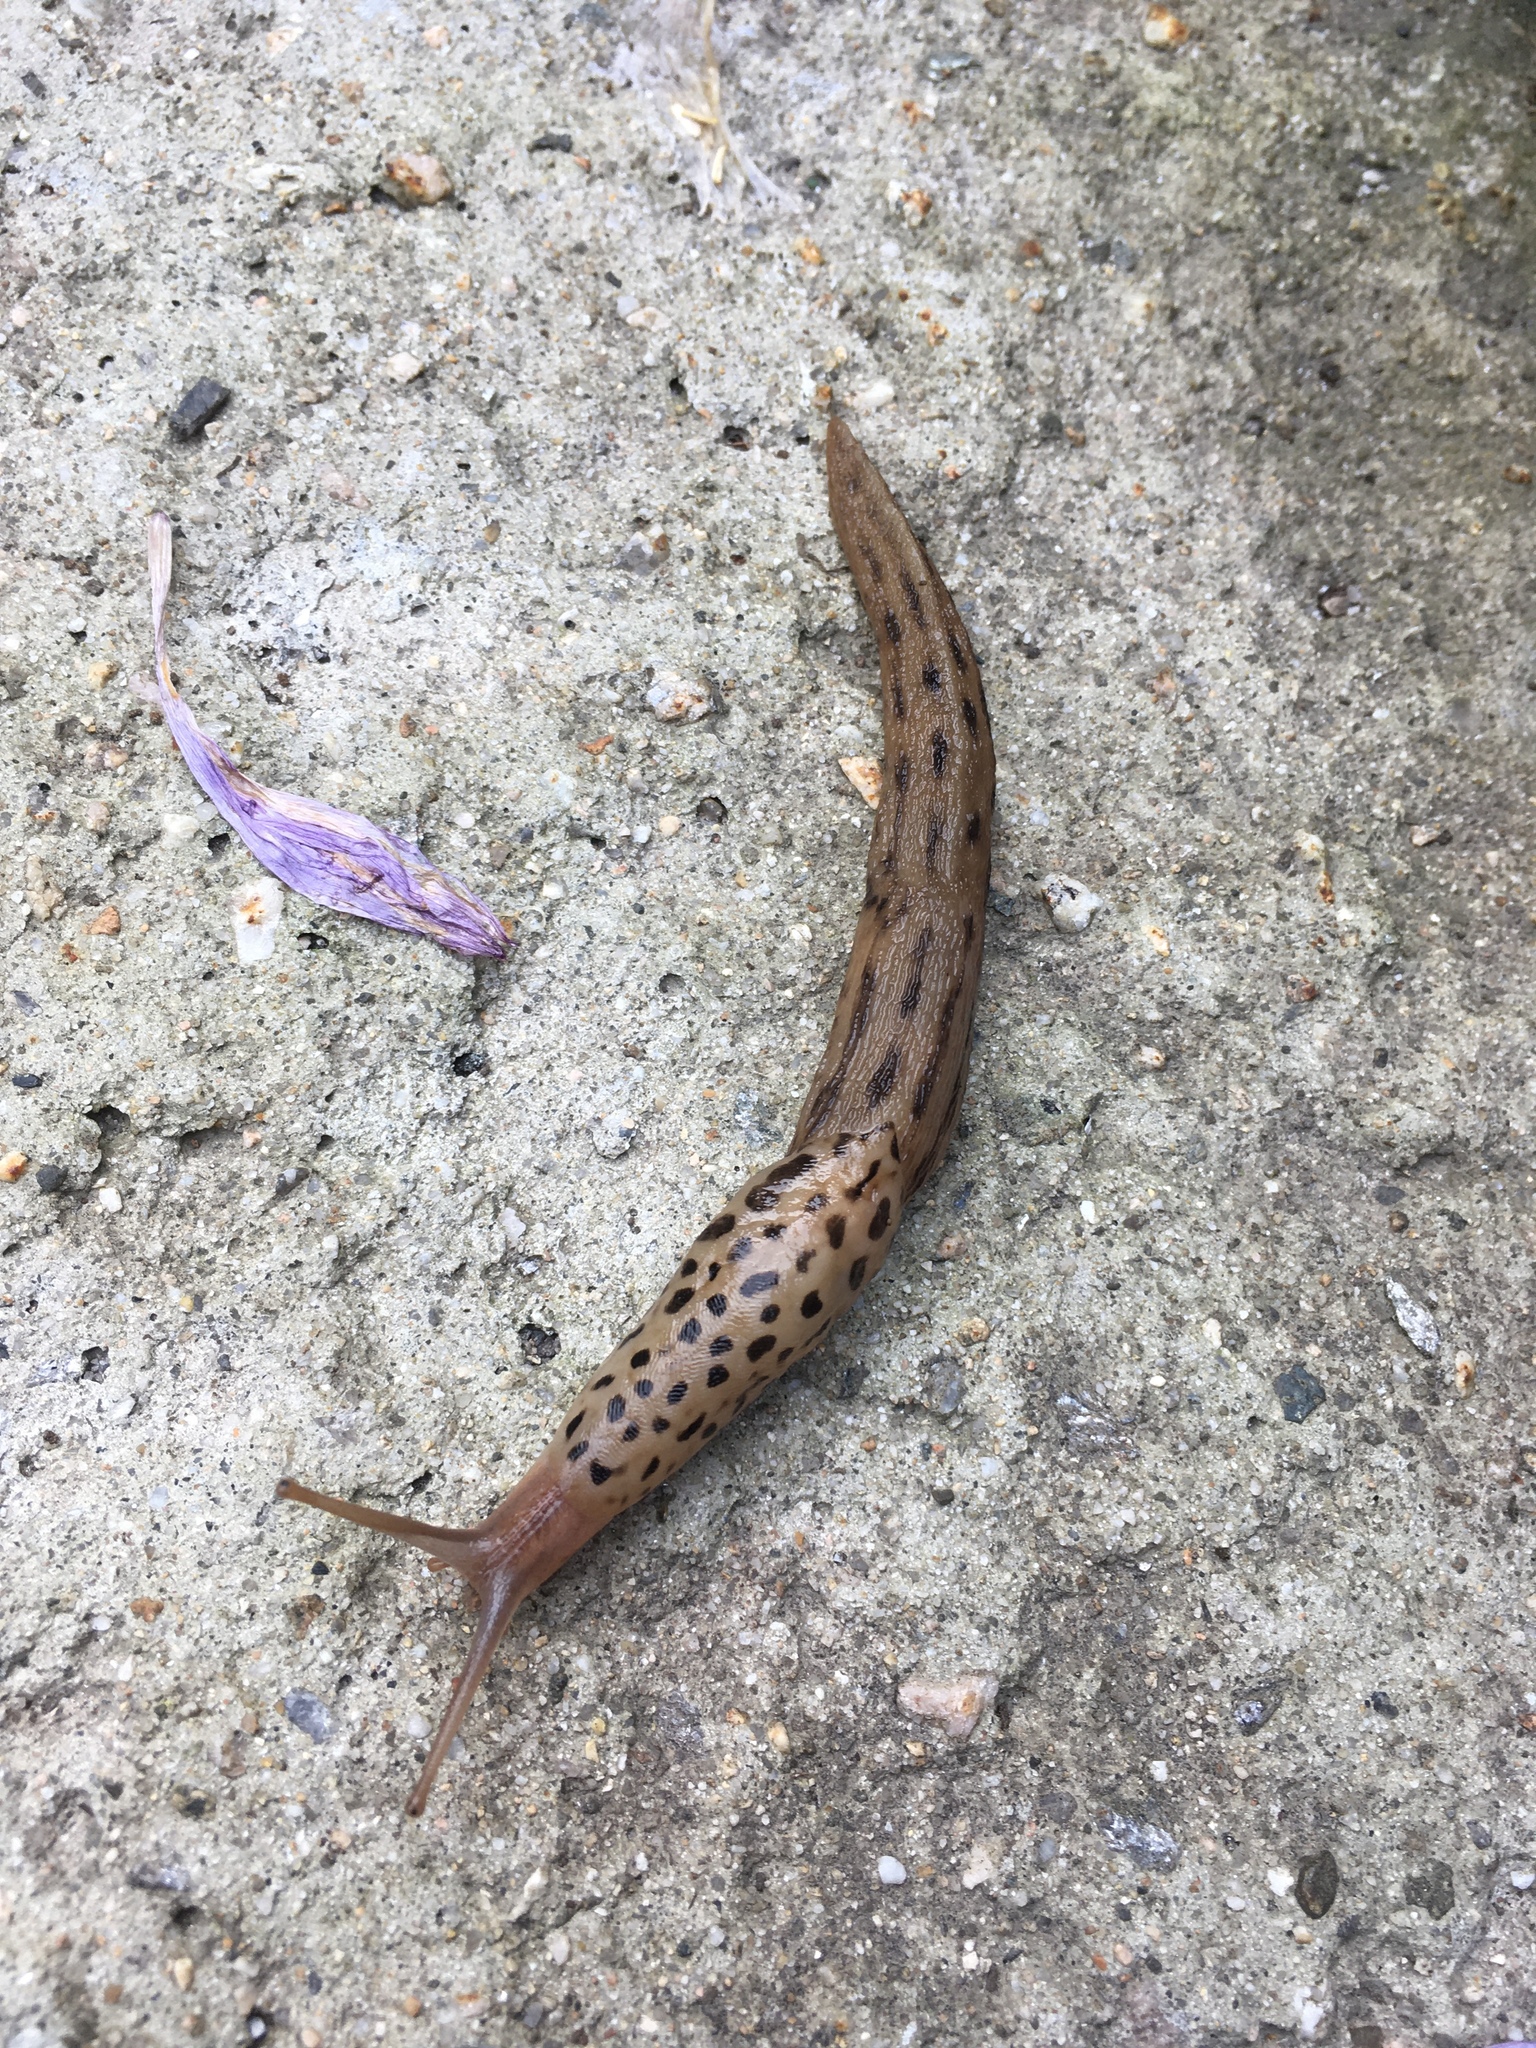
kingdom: Animalia
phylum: Mollusca
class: Gastropoda
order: Stylommatophora
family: Limacidae
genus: Limax
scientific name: Limax maximus
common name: Great grey slug
